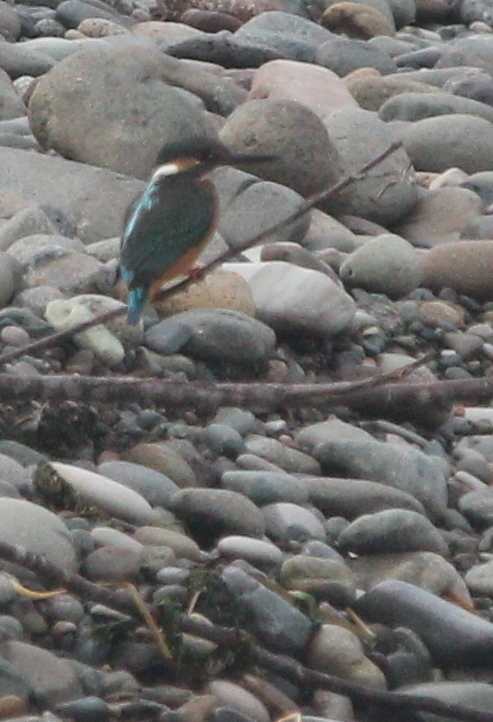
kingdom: Animalia
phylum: Chordata
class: Aves
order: Coraciiformes
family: Alcedinidae
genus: Alcedo
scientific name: Alcedo atthis
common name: Common kingfisher
